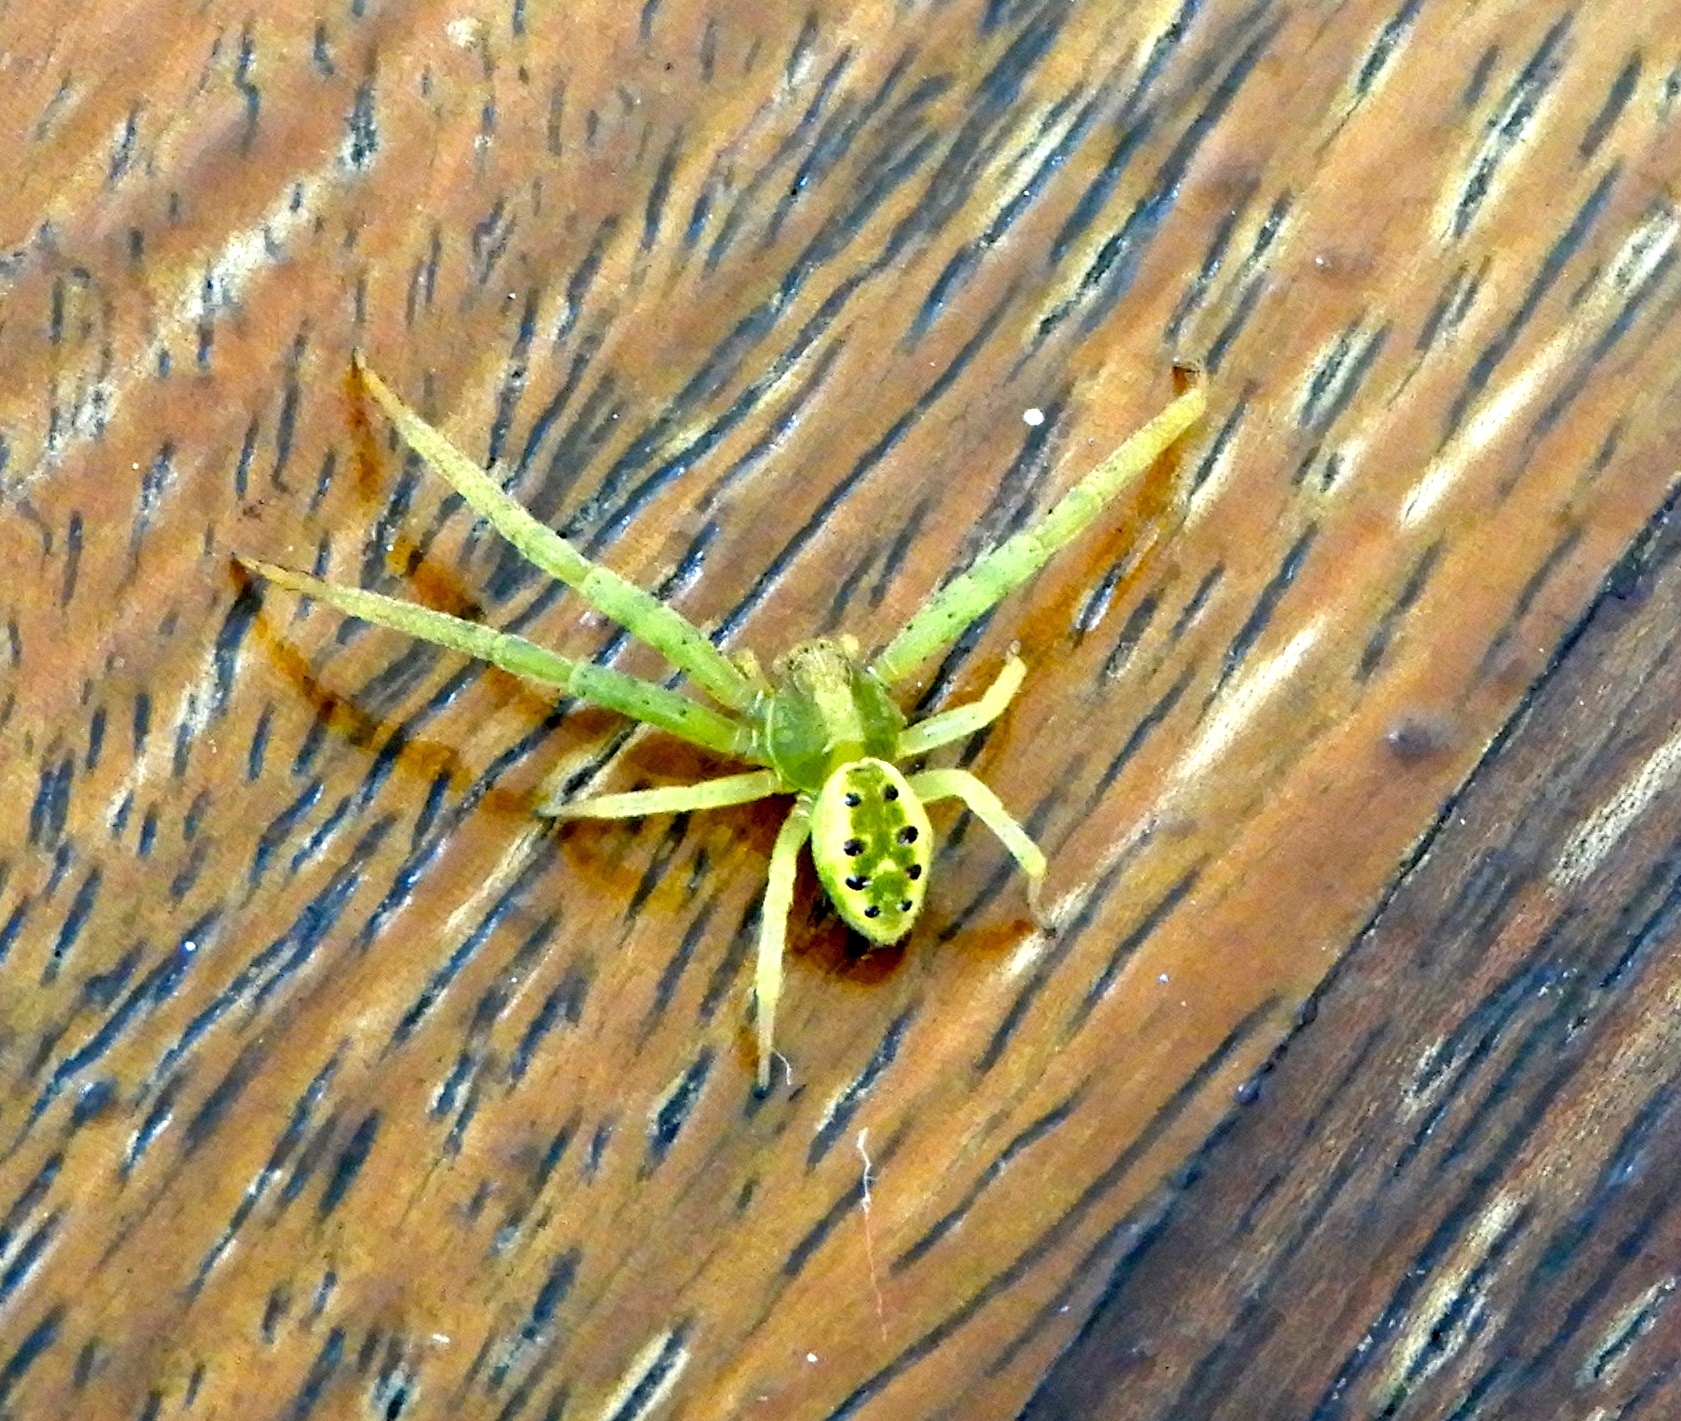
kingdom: Animalia
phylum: Arthropoda
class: Arachnida
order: Araneae
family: Thomisidae
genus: Isaloides
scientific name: Isaloides putus
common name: Crab spiders
